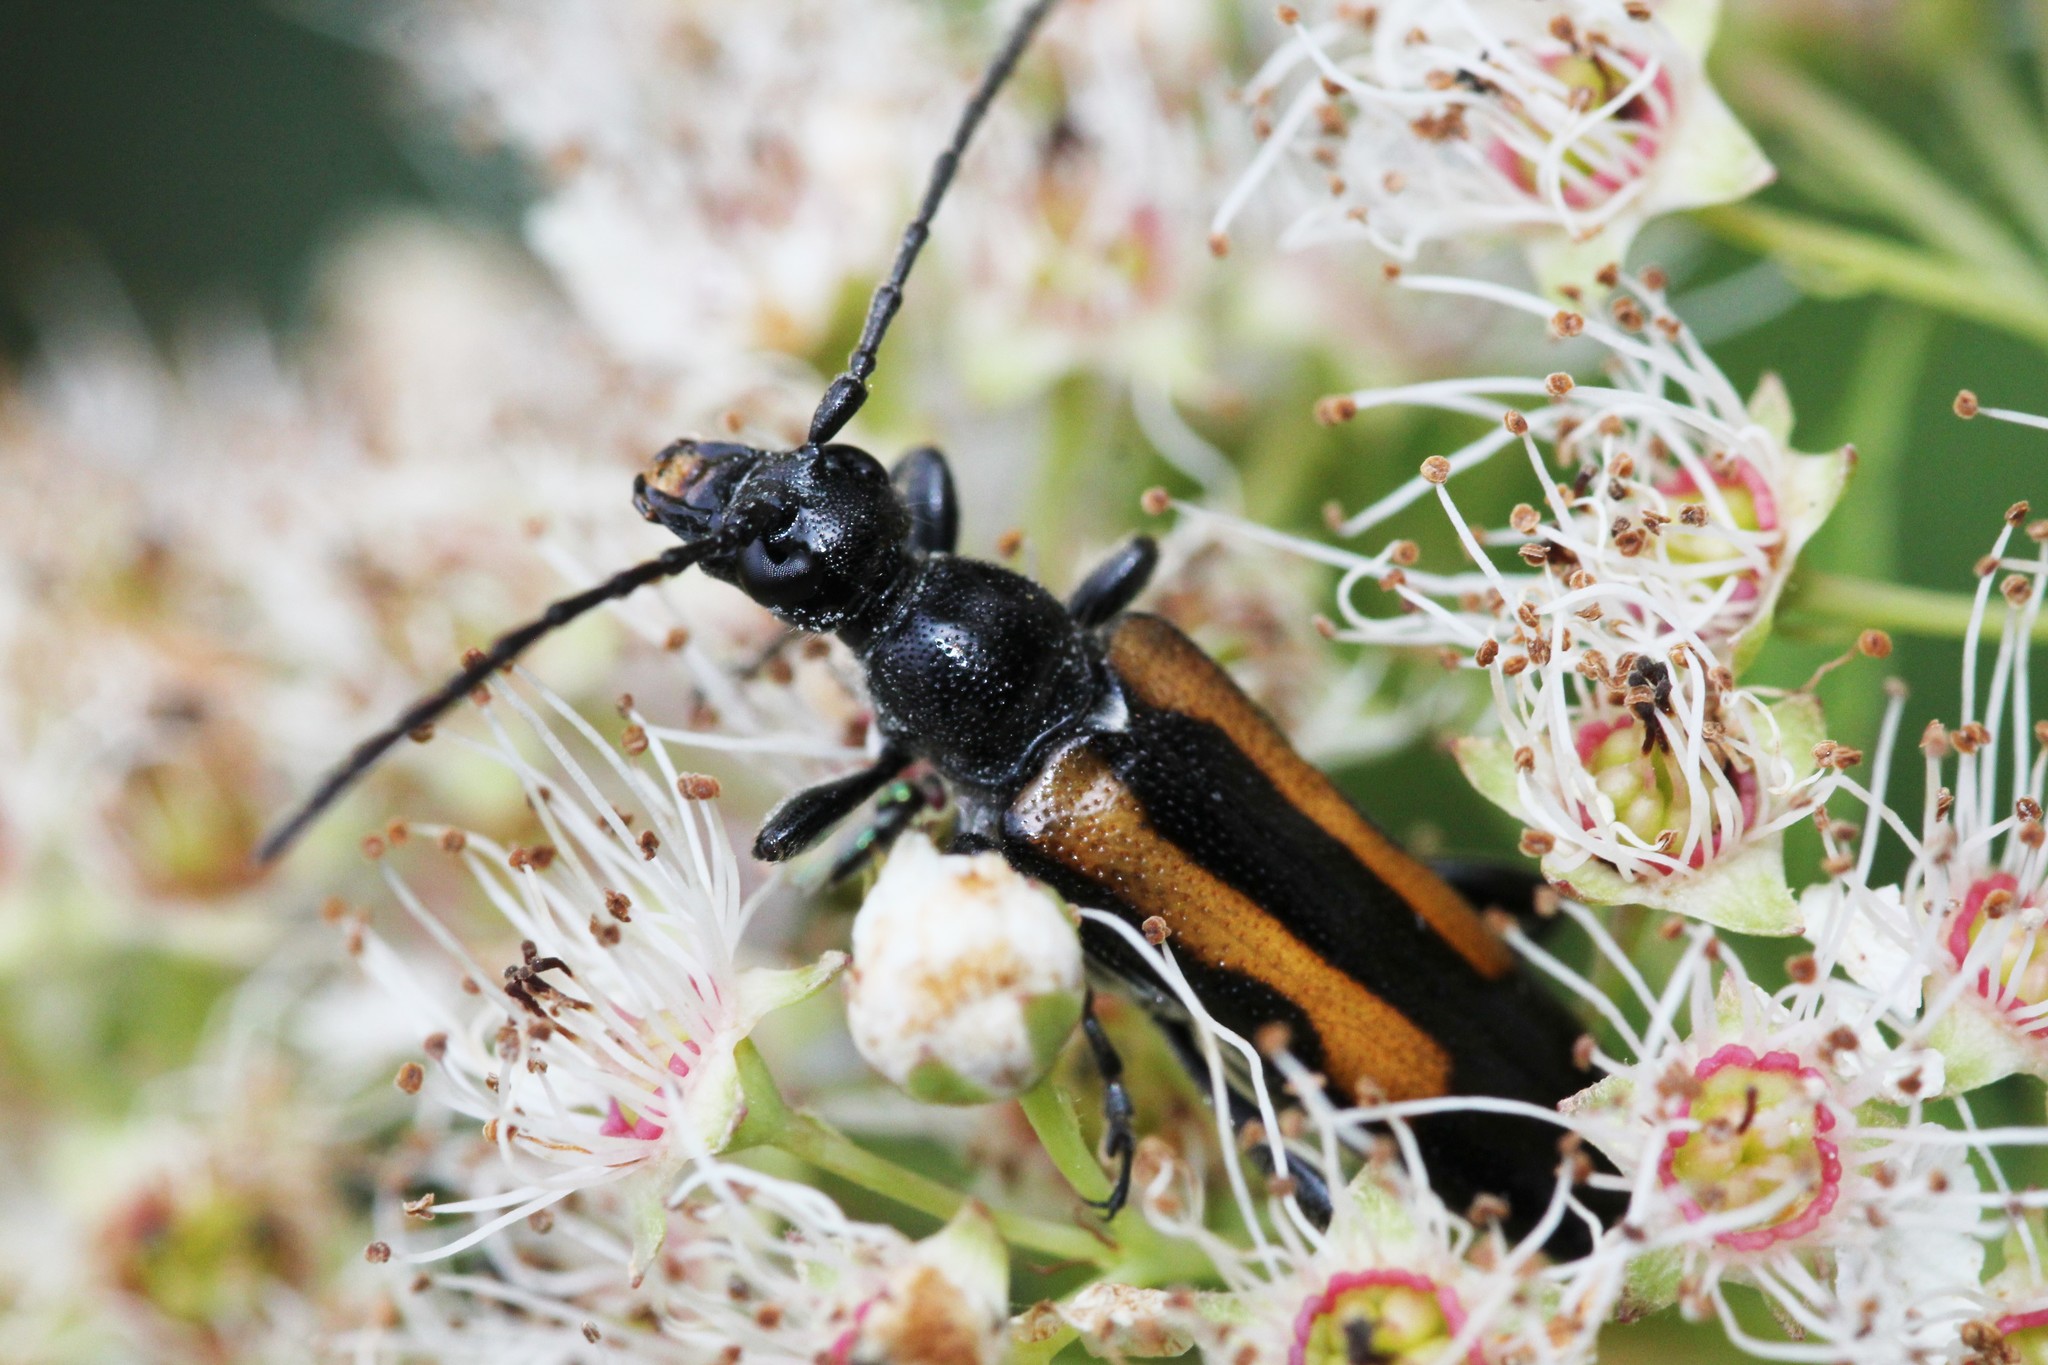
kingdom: Animalia
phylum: Arthropoda
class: Insecta
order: Coleoptera
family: Cerambycidae
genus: Strangalepta
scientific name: Strangalepta abbreviata
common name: Strangalepta flower longhorn beetle
